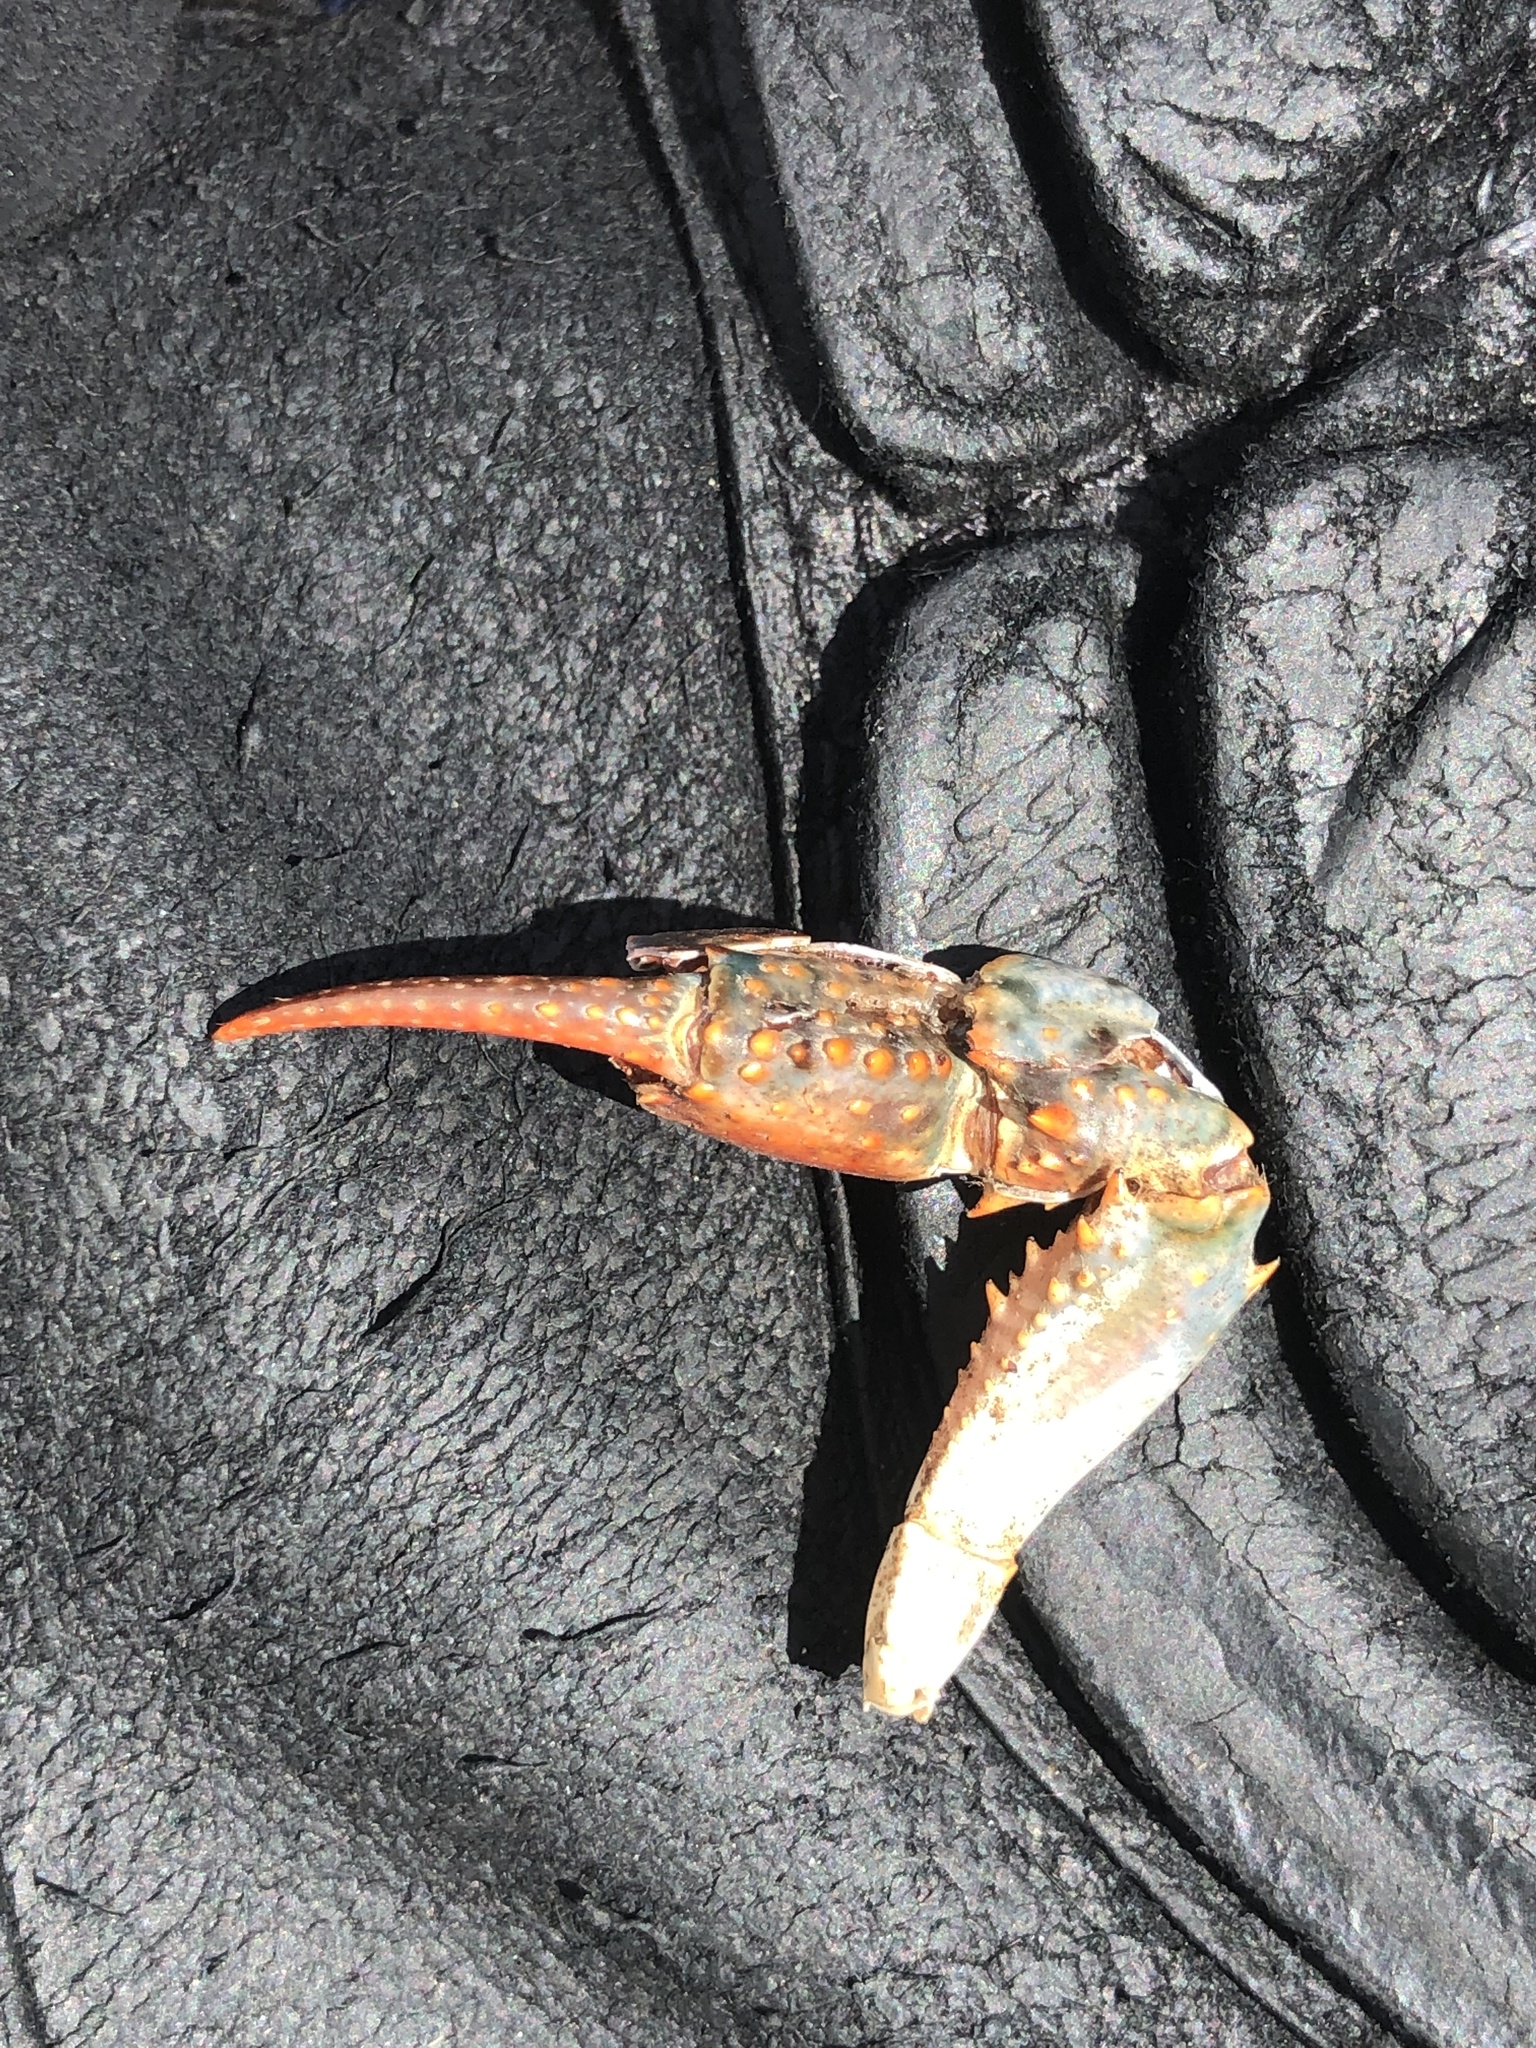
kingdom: Animalia
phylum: Arthropoda
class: Malacostraca
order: Decapoda
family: Cambaridae
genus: Procambarus
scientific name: Procambarus clarkii
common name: Red swamp crayfish
